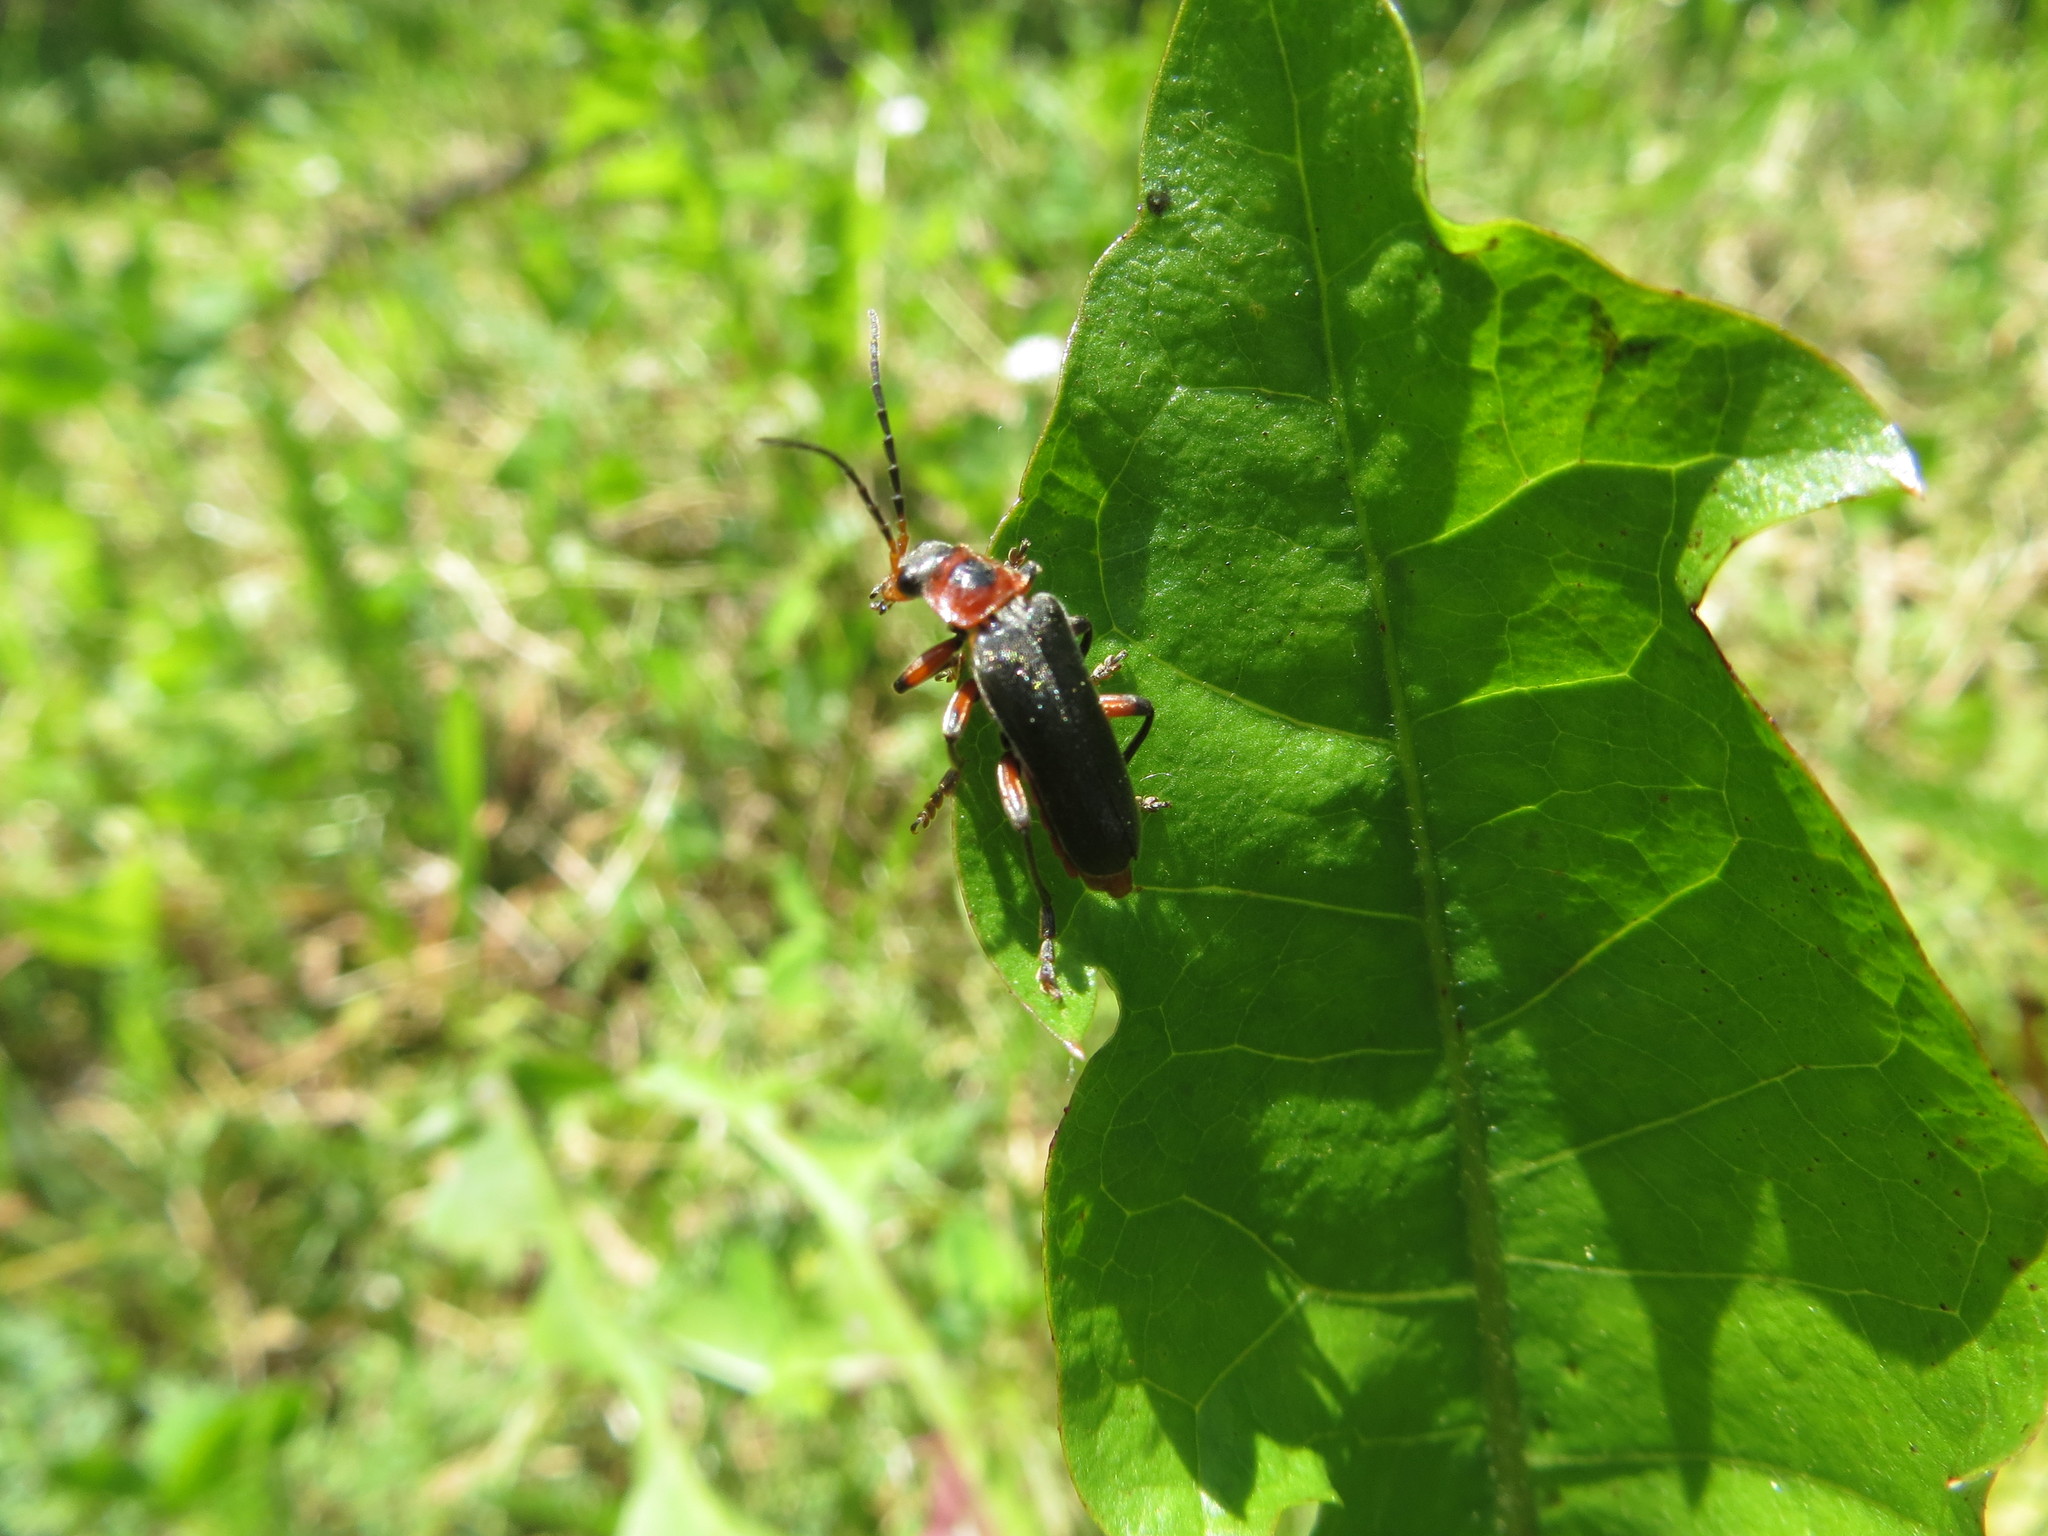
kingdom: Animalia
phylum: Arthropoda
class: Insecta
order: Coleoptera
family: Cantharidae
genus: Cantharis
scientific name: Cantharis rustica
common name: Soldier beetle
